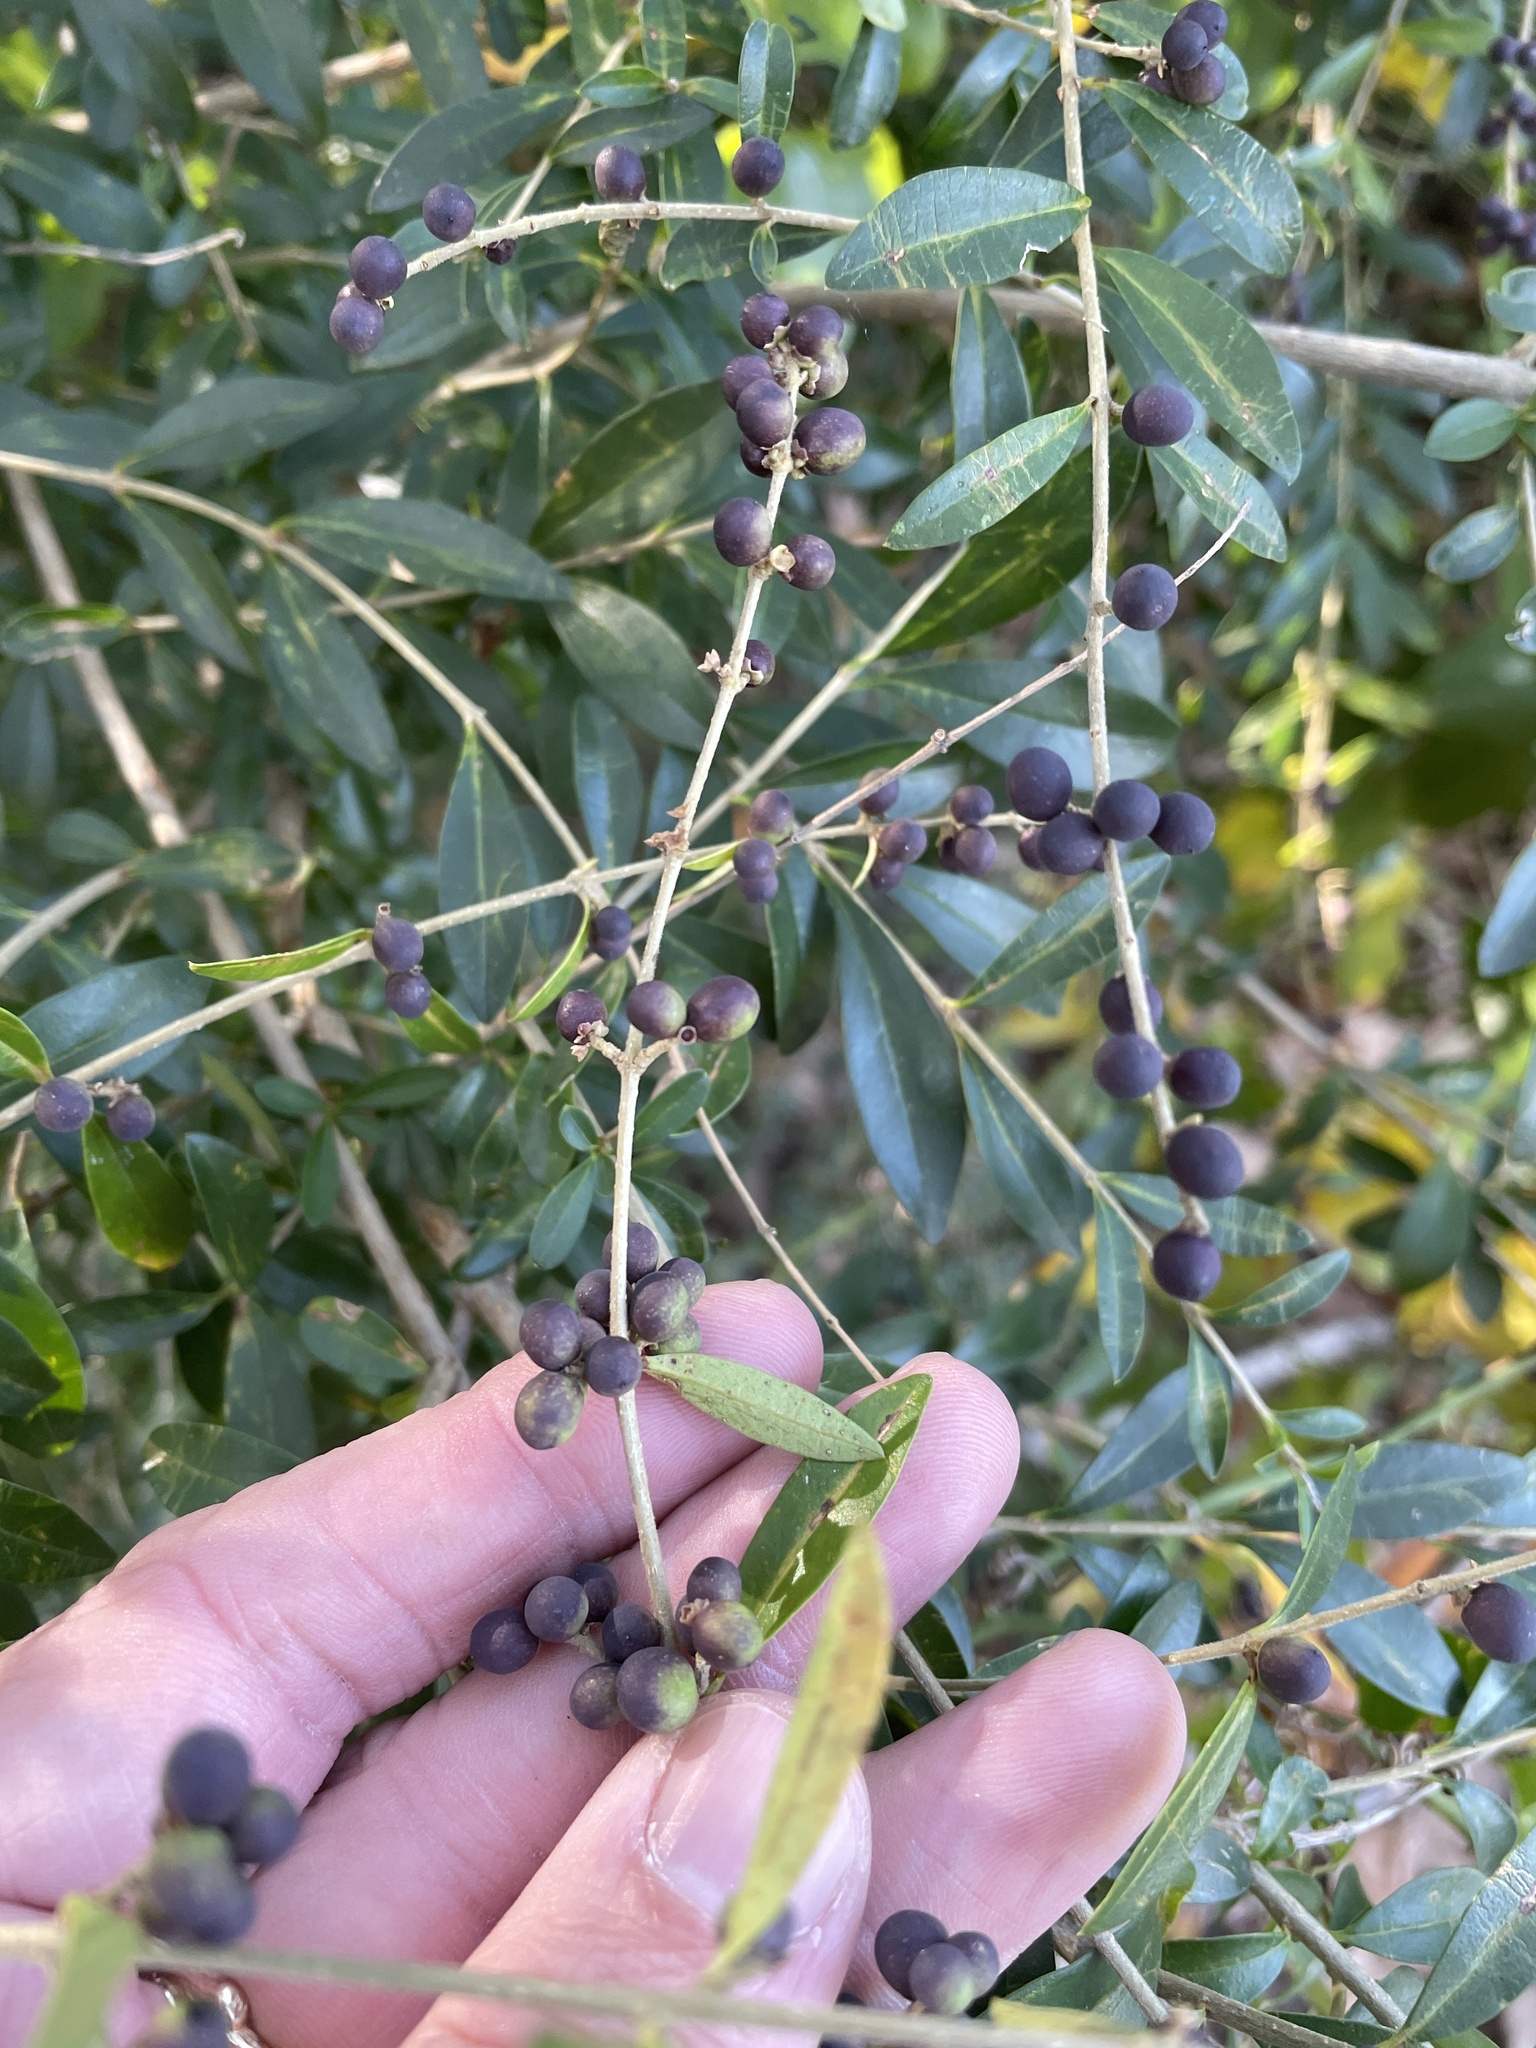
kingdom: Plantae
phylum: Tracheophyta
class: Magnoliopsida
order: Lamiales
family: Oleaceae
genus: Ligustrum
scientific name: Ligustrum quihoui
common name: Waxyleaf privet
